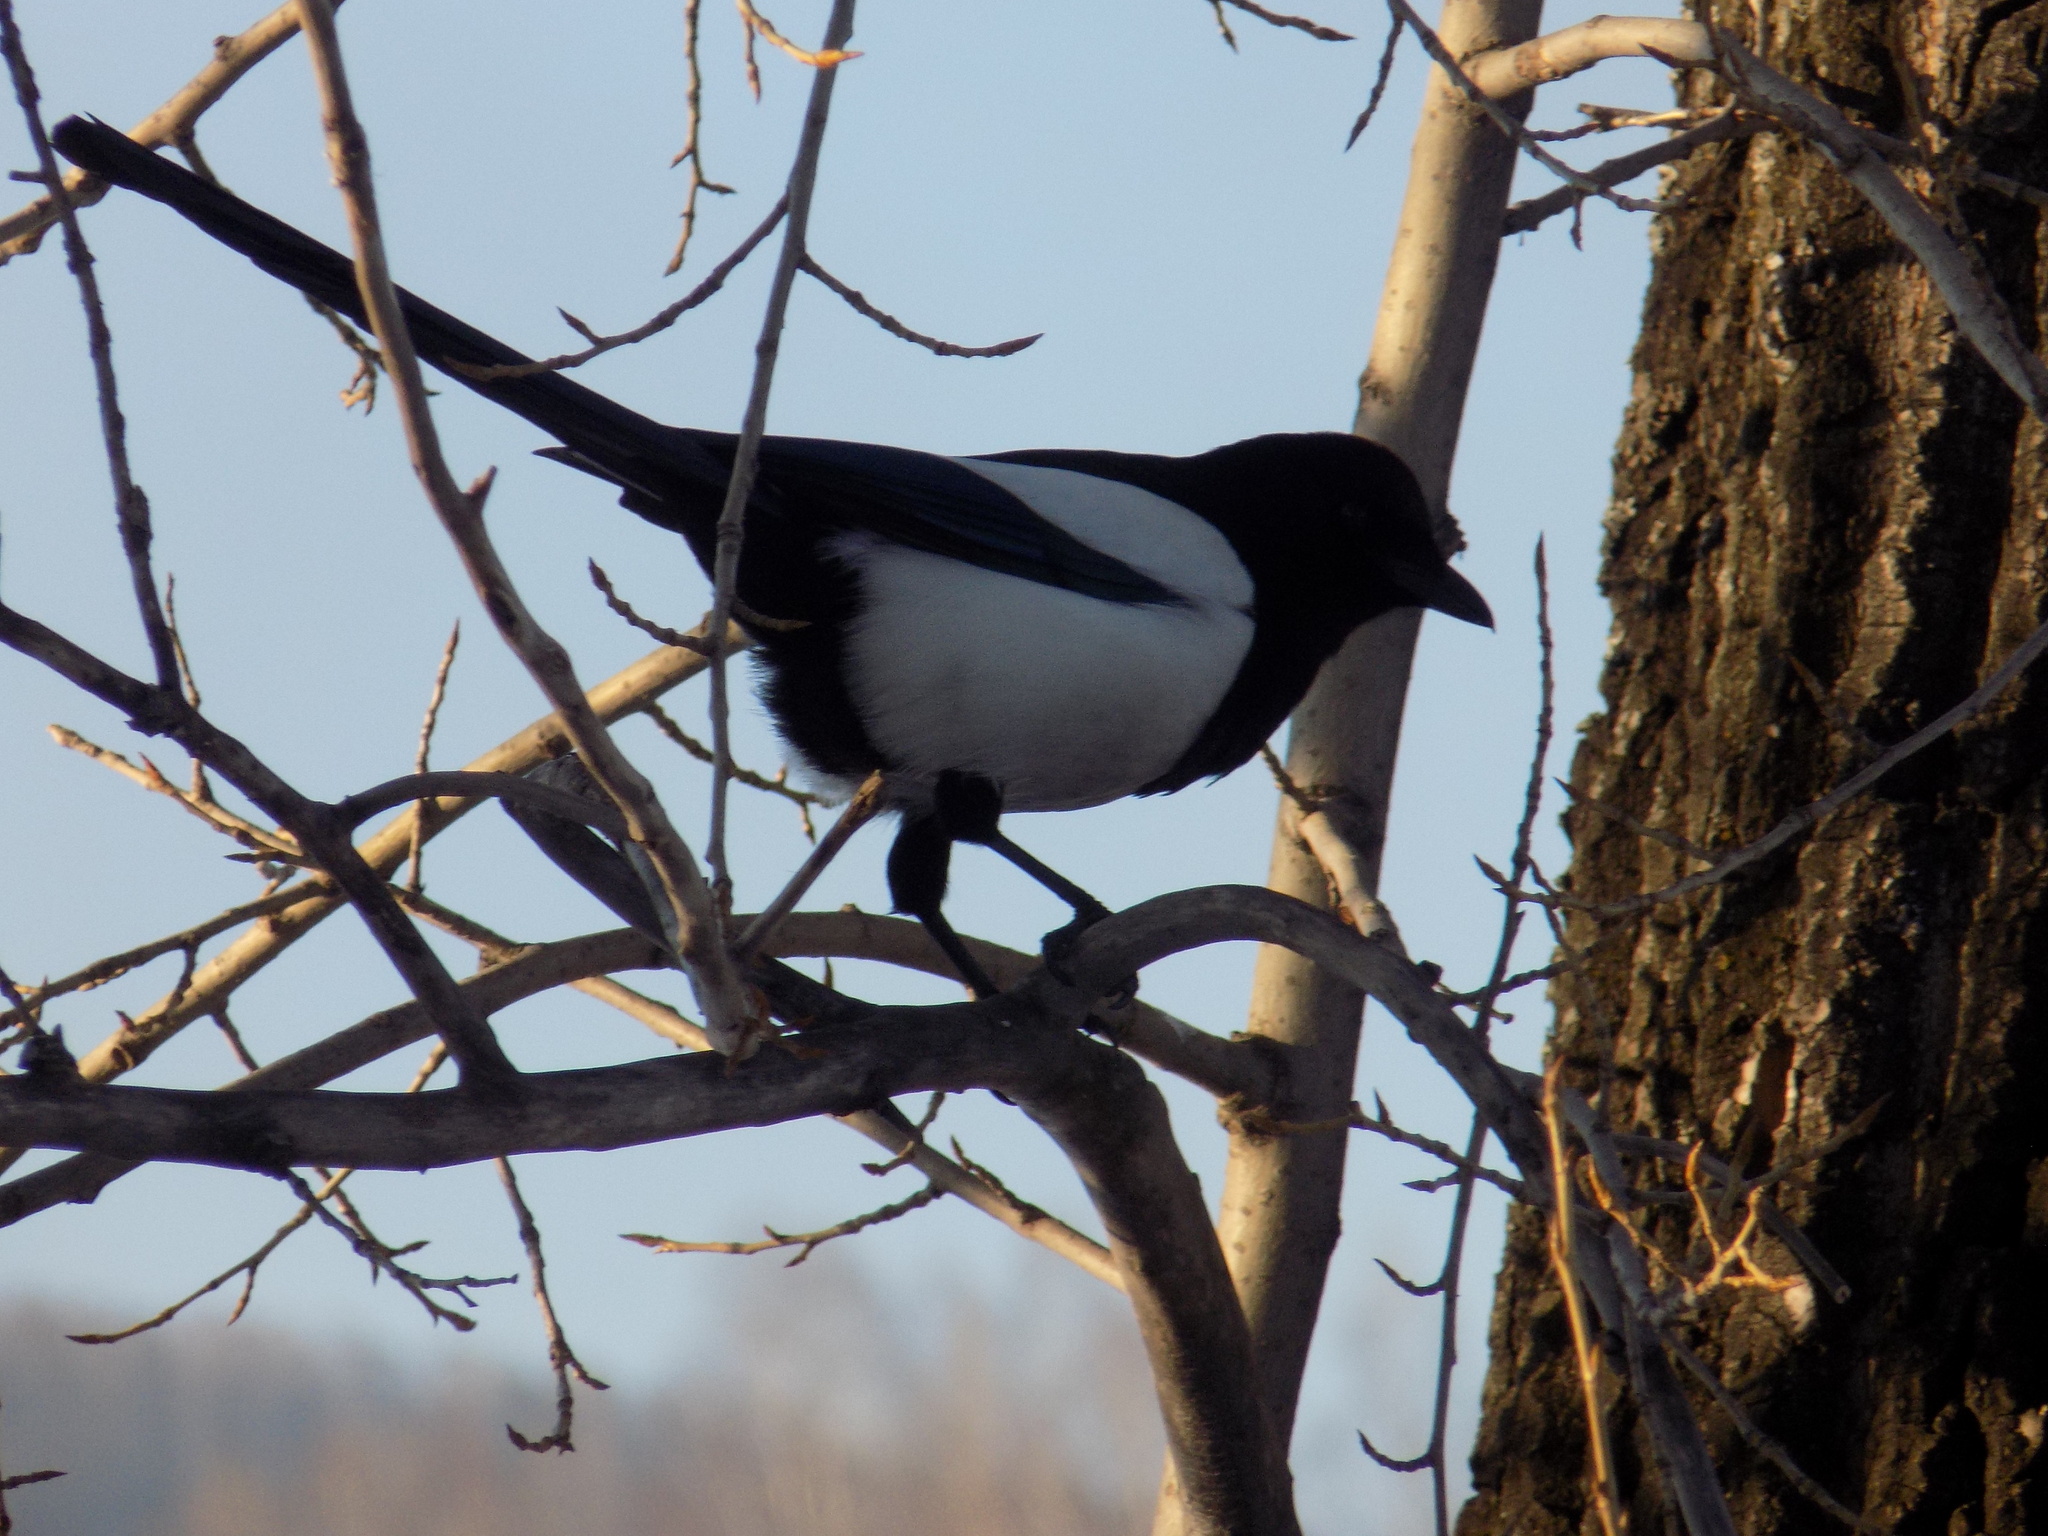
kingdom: Animalia
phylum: Chordata
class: Aves
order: Passeriformes
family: Corvidae
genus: Pica
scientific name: Pica pica
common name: Eurasian magpie
